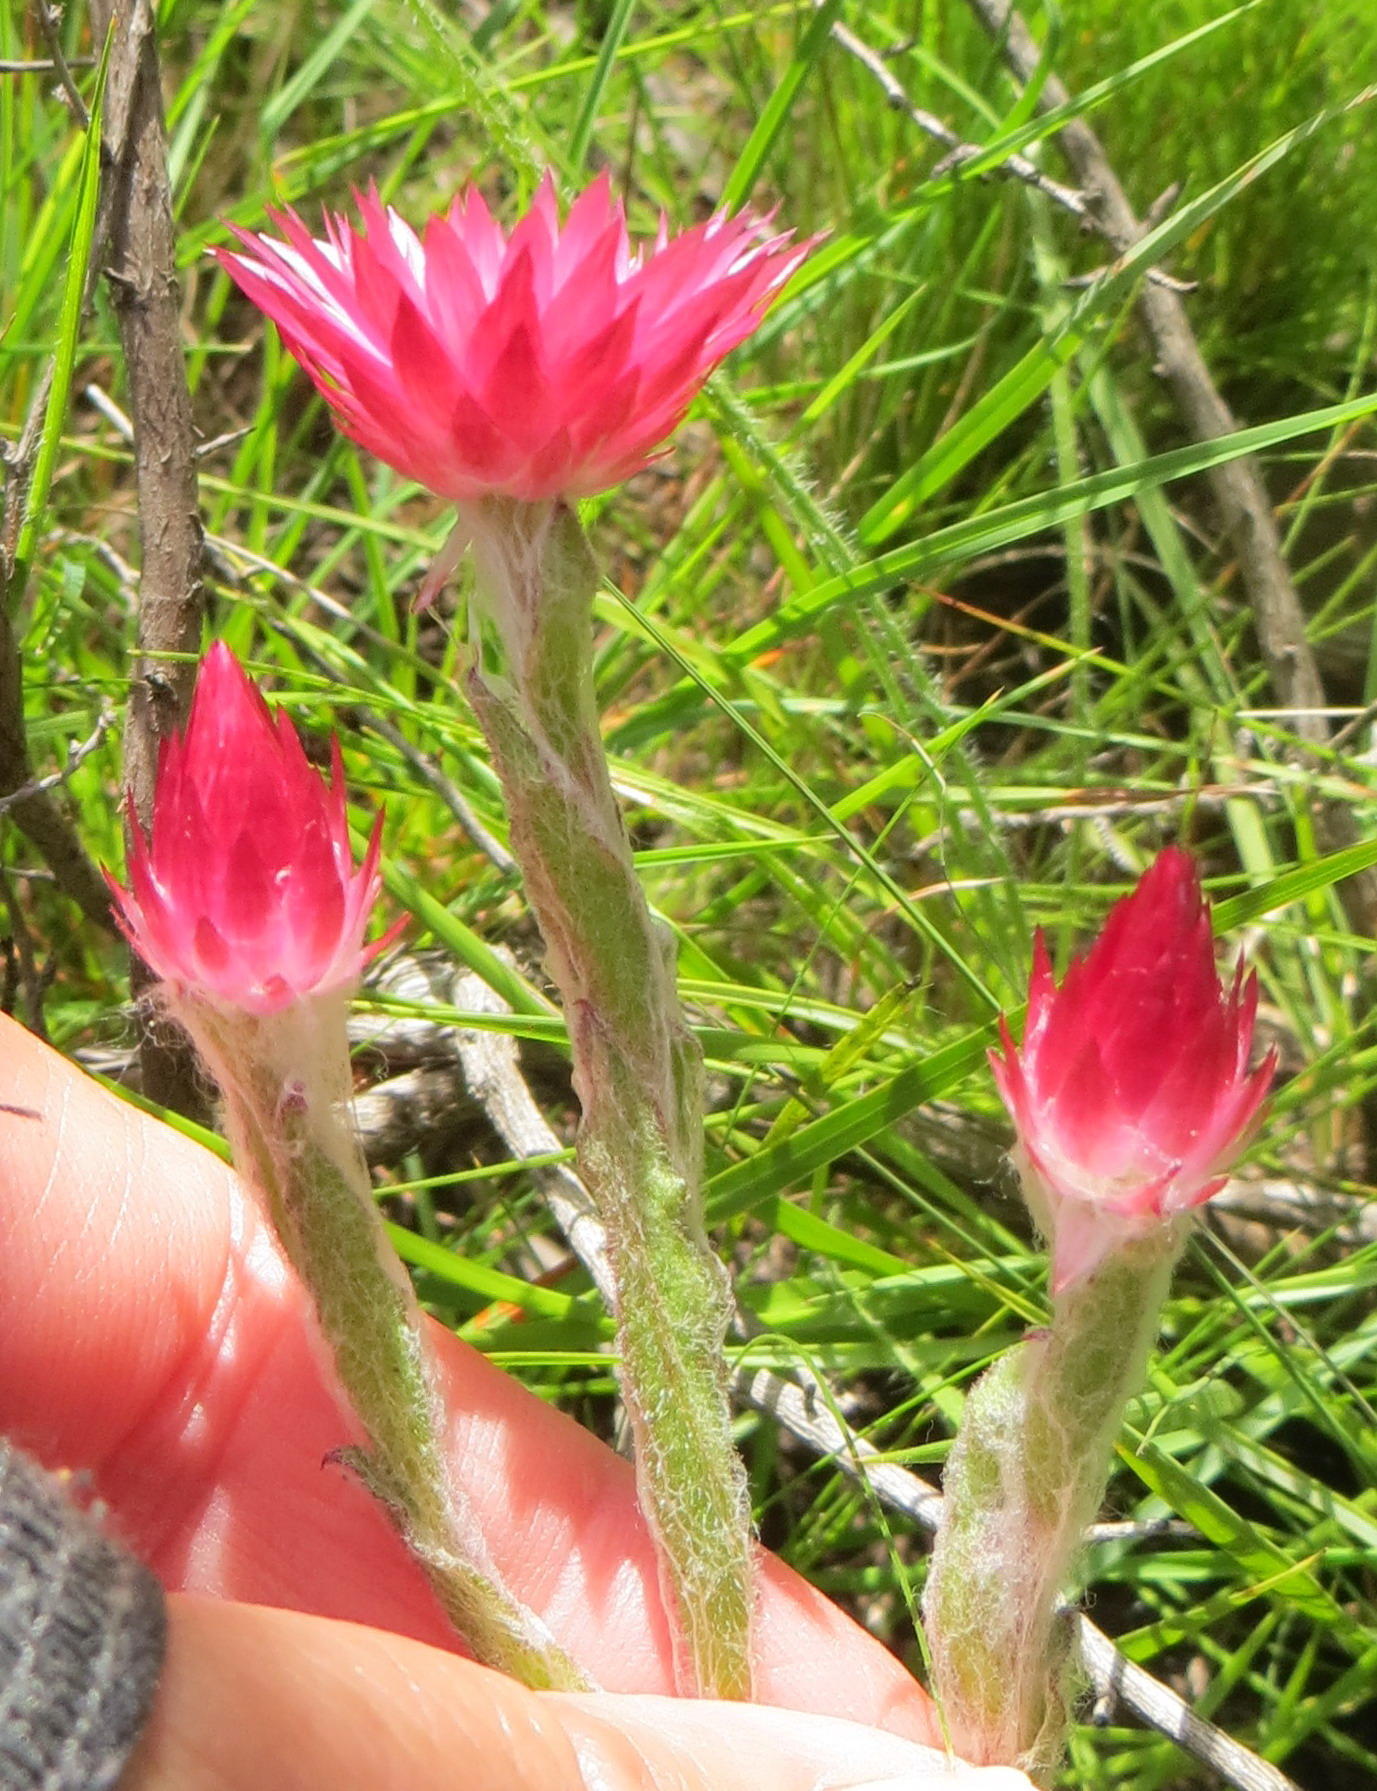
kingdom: Plantae
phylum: Tracheophyta
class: Magnoliopsida
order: Asterales
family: Asteraceae
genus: Helichrysum
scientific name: Helichrysum adenocarpum
